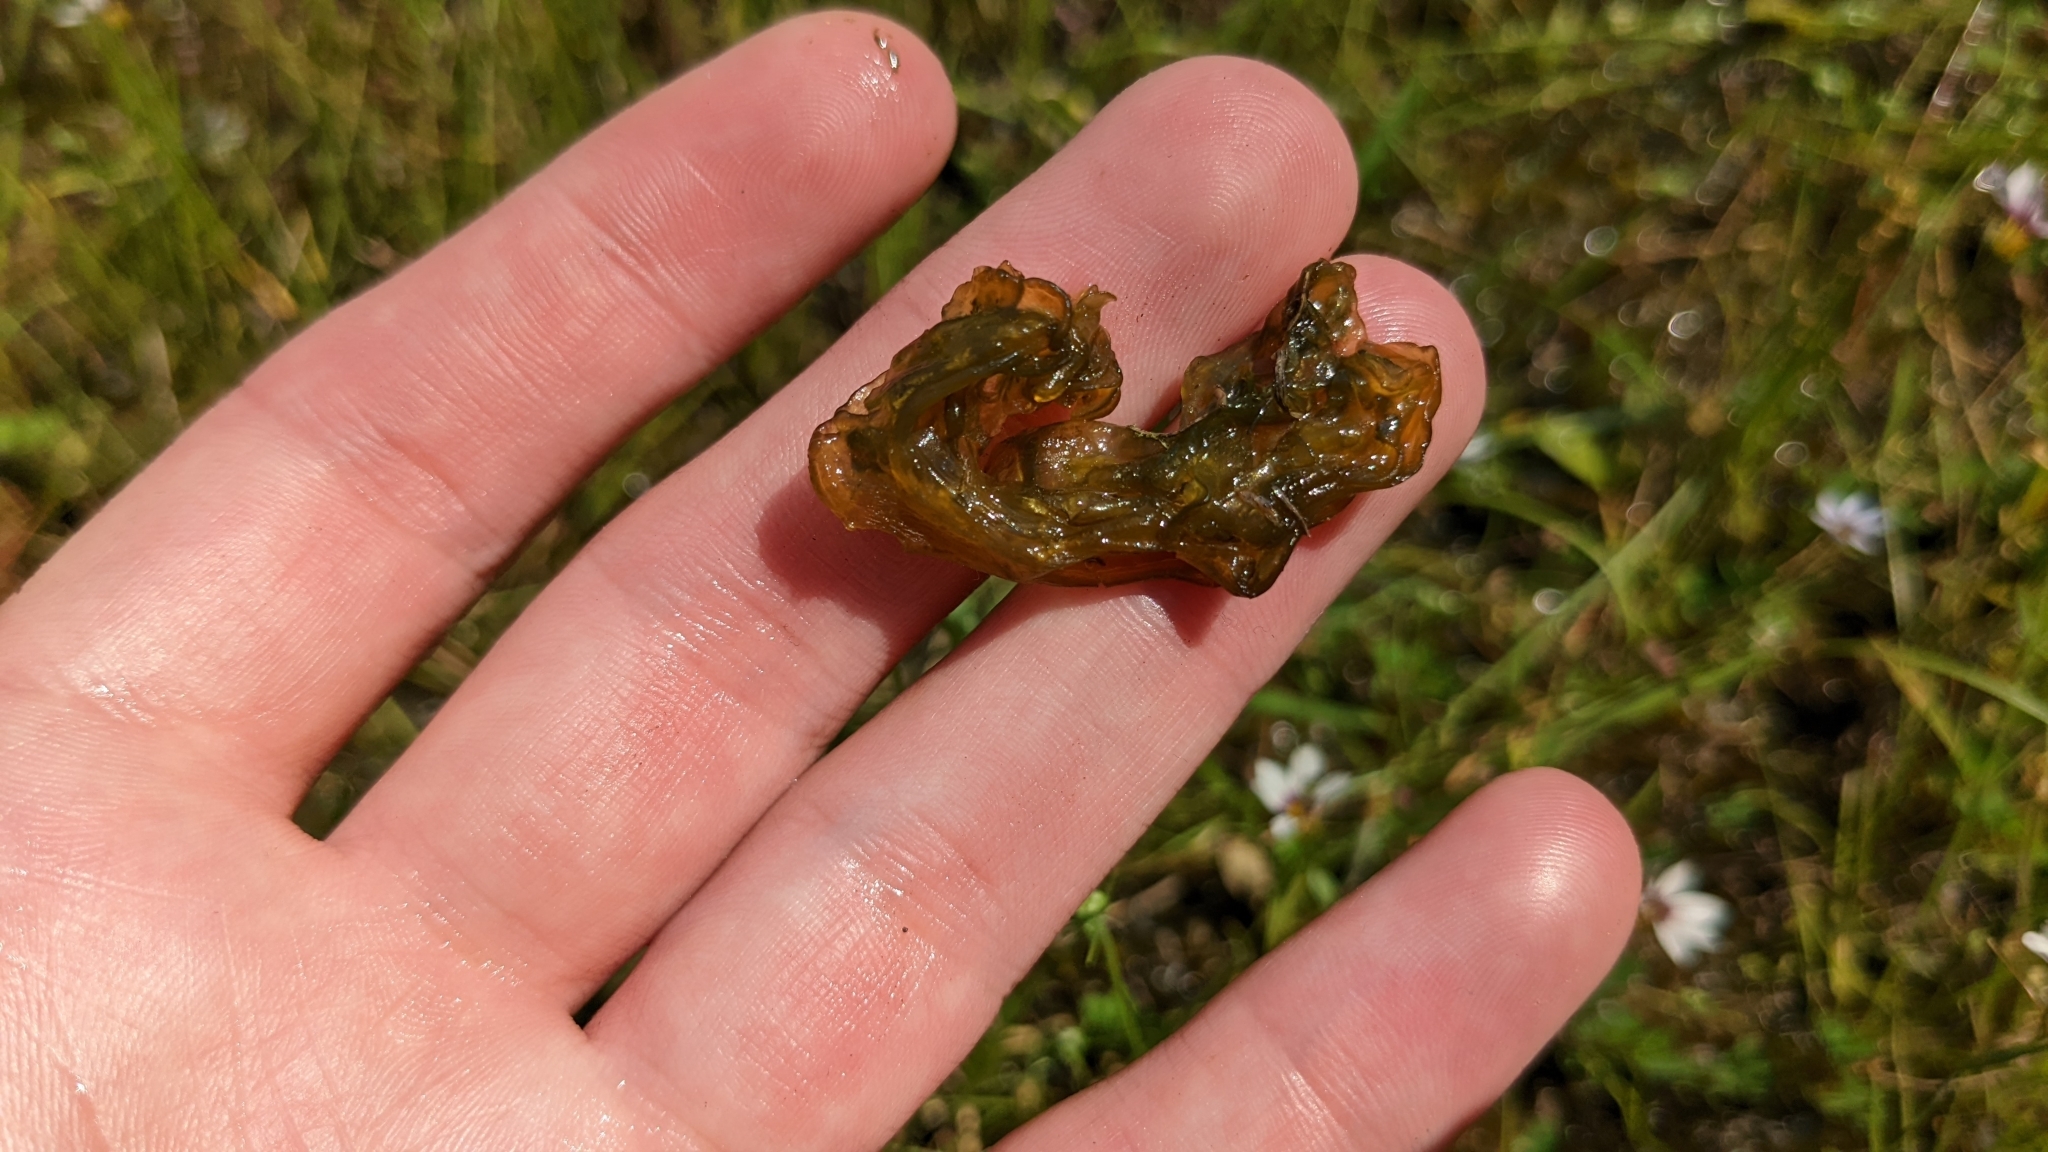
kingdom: Bacteria
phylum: Cyanobacteria
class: Cyanobacteriia
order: Cyanobacteriales
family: Nostocaceae
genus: Nostoc
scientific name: Nostoc commune
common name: Star jelly
